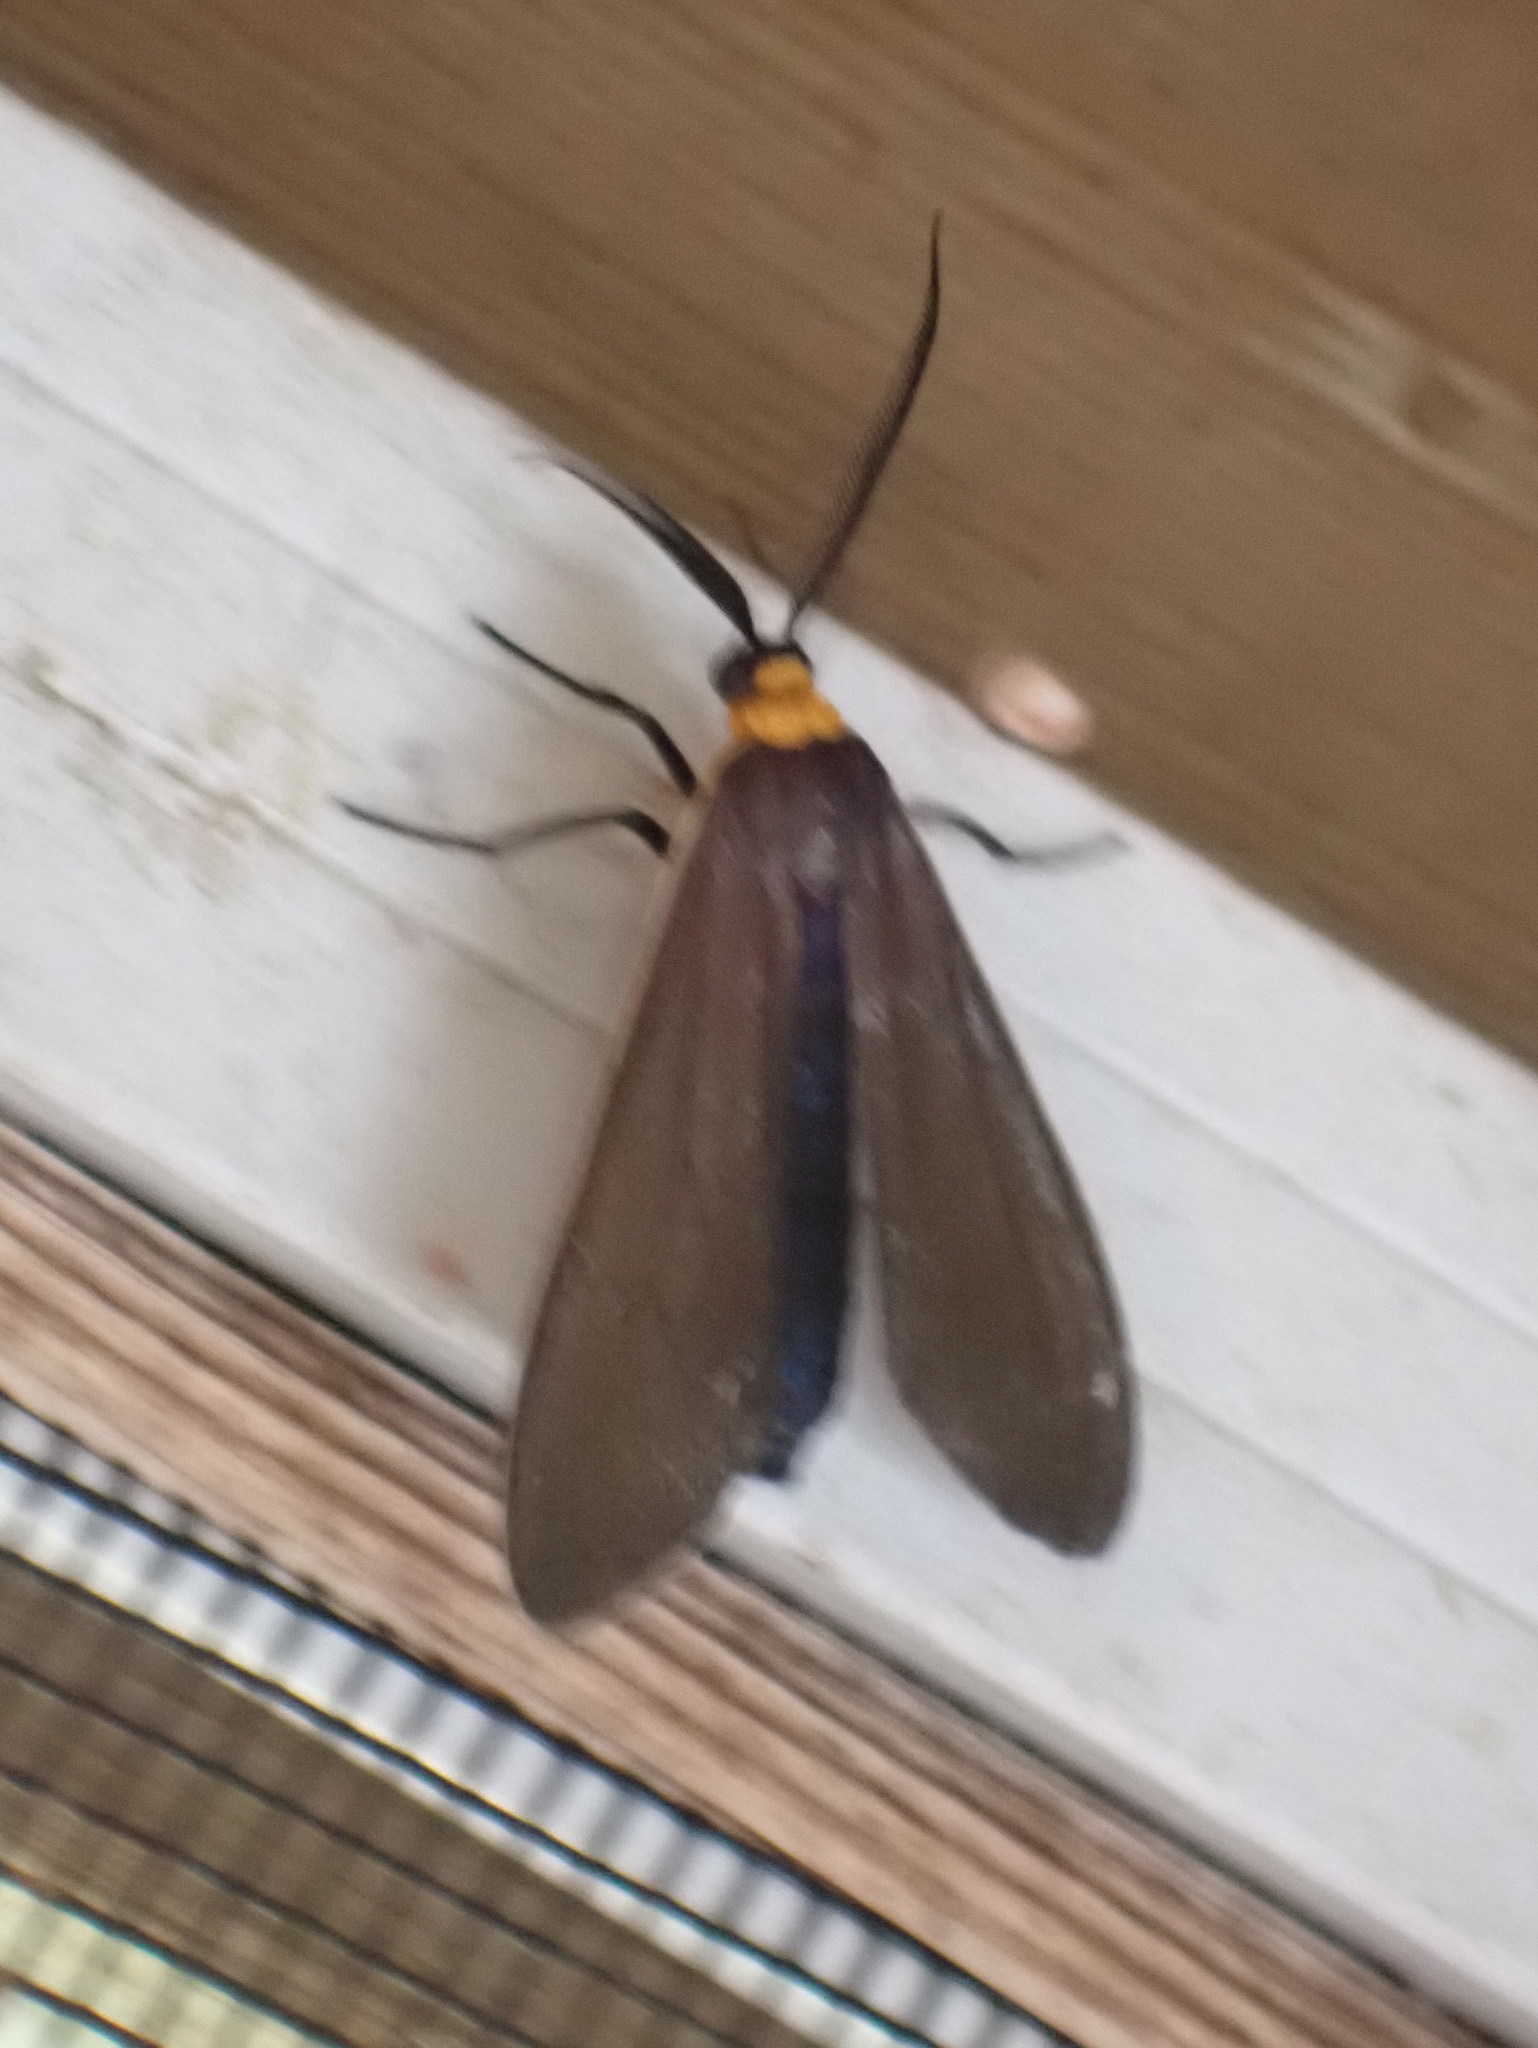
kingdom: Animalia
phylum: Arthropoda
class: Insecta
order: Lepidoptera
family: Erebidae
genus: Cisseps
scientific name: Cisseps fulvicollis
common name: Yellow-collared scape moth
